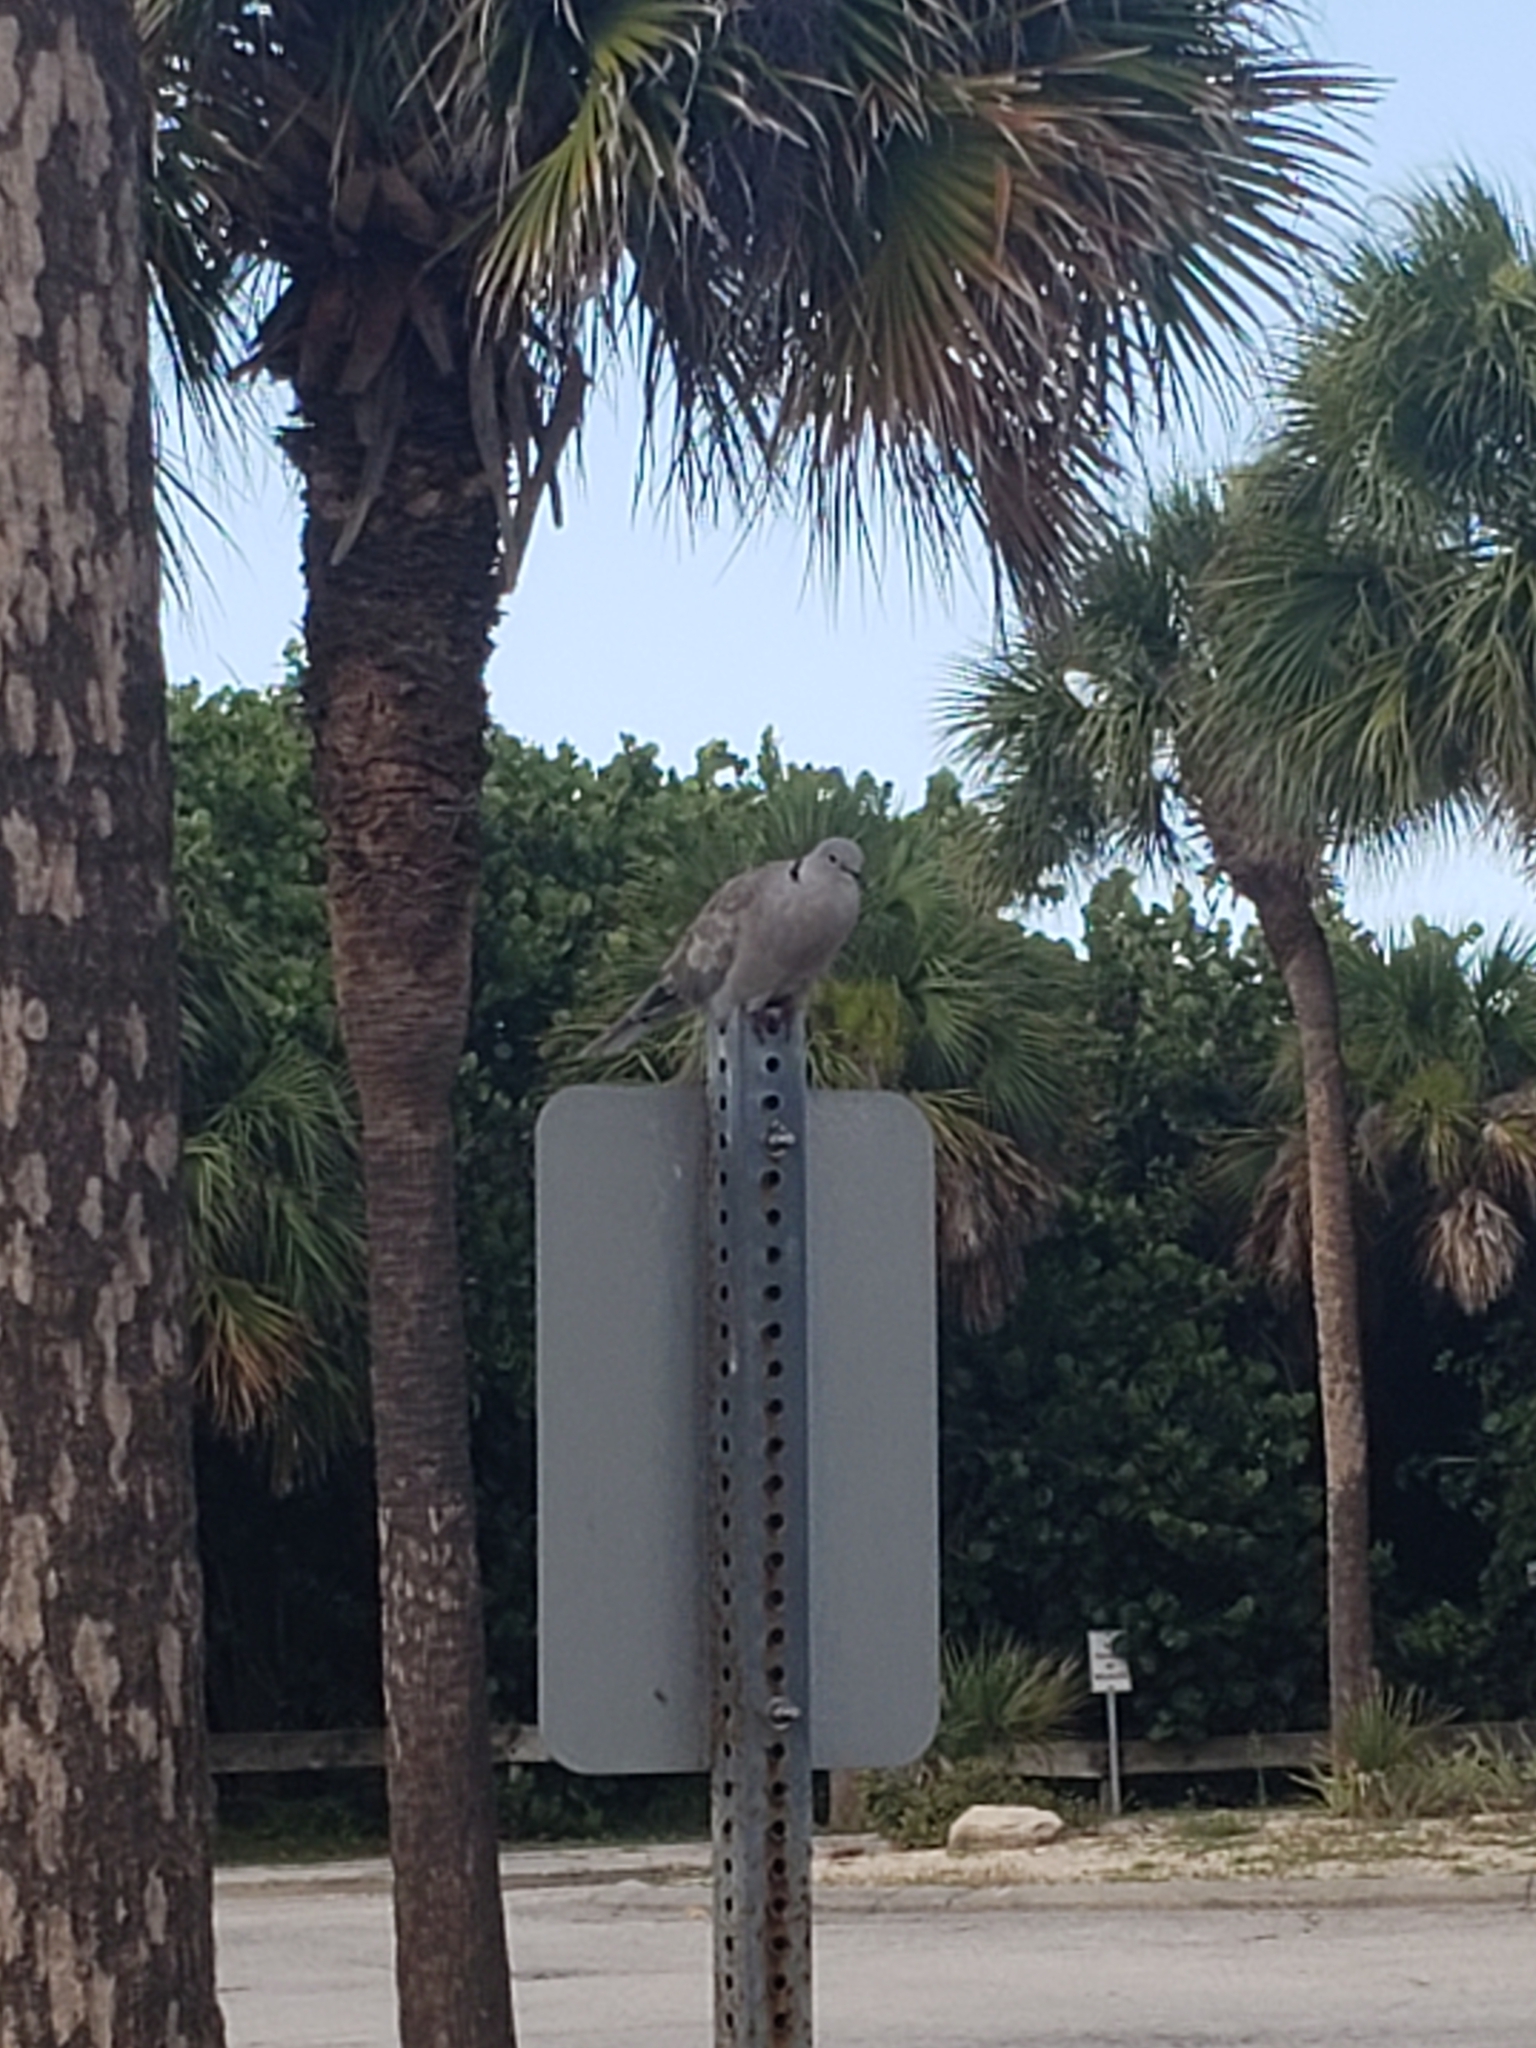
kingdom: Animalia
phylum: Chordata
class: Aves
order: Columbiformes
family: Columbidae
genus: Streptopelia
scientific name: Streptopelia decaocto
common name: Eurasian collared dove
